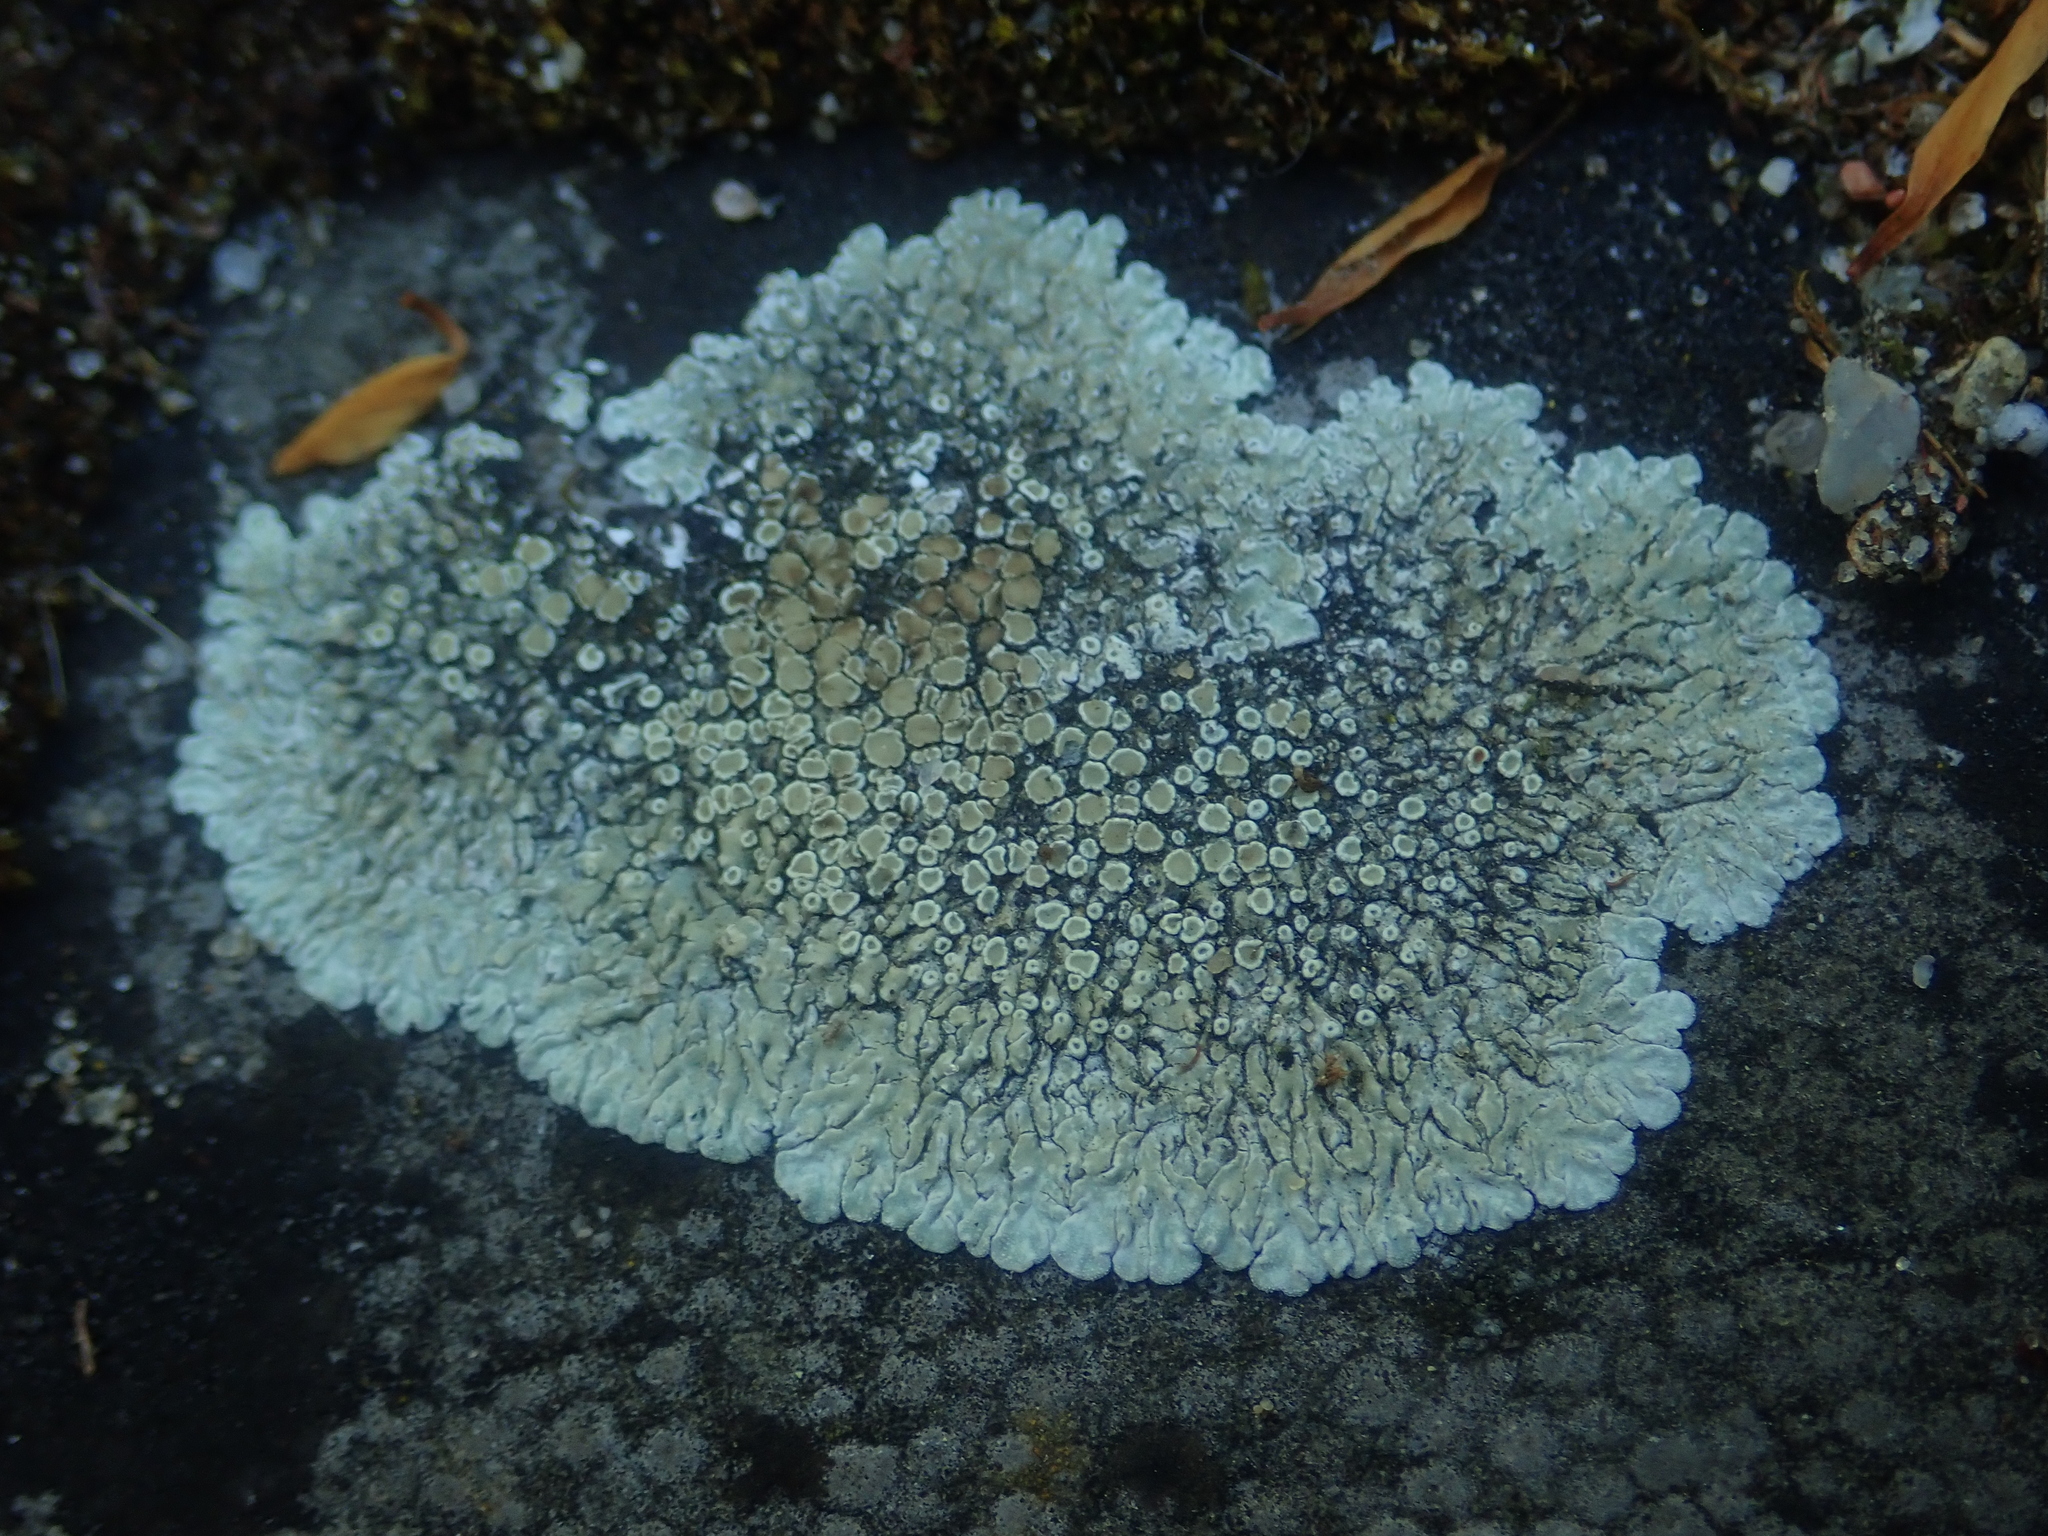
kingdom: Fungi
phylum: Ascomycota
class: Lecanoromycetes
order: Lecanorales
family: Lecanoraceae
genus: Protoparmeliopsis
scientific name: Protoparmeliopsis muralis
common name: Stonewall rim lichen
